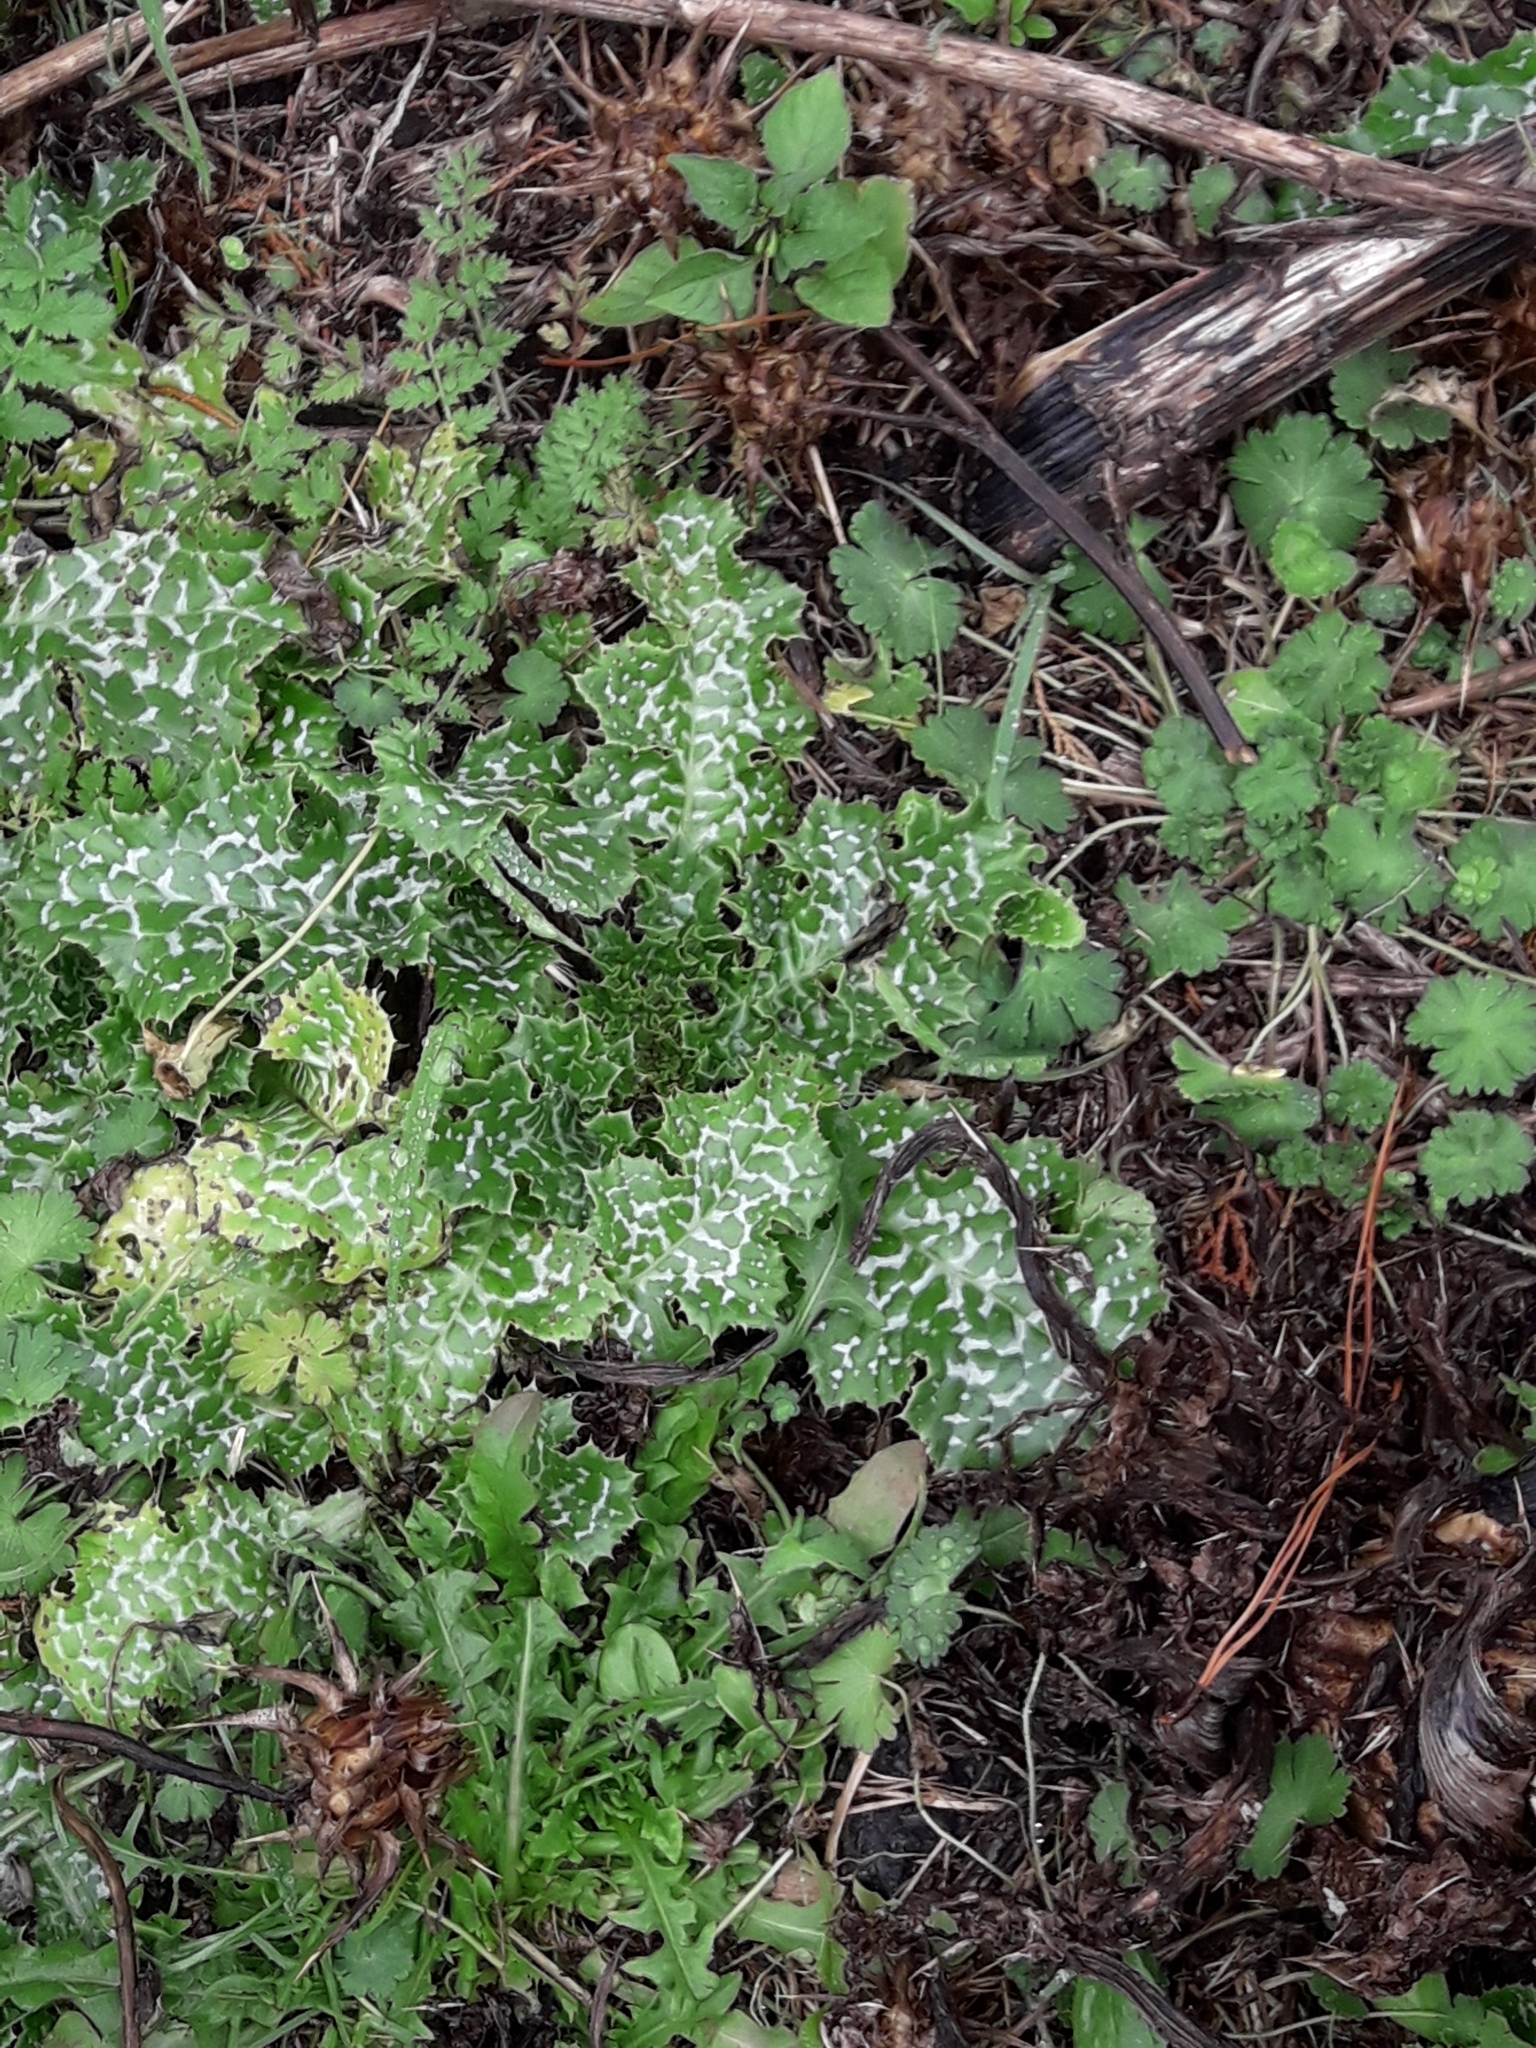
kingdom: Plantae
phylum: Tracheophyta
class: Magnoliopsida
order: Asterales
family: Asteraceae
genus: Silybum
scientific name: Silybum marianum
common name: Milk thistle
